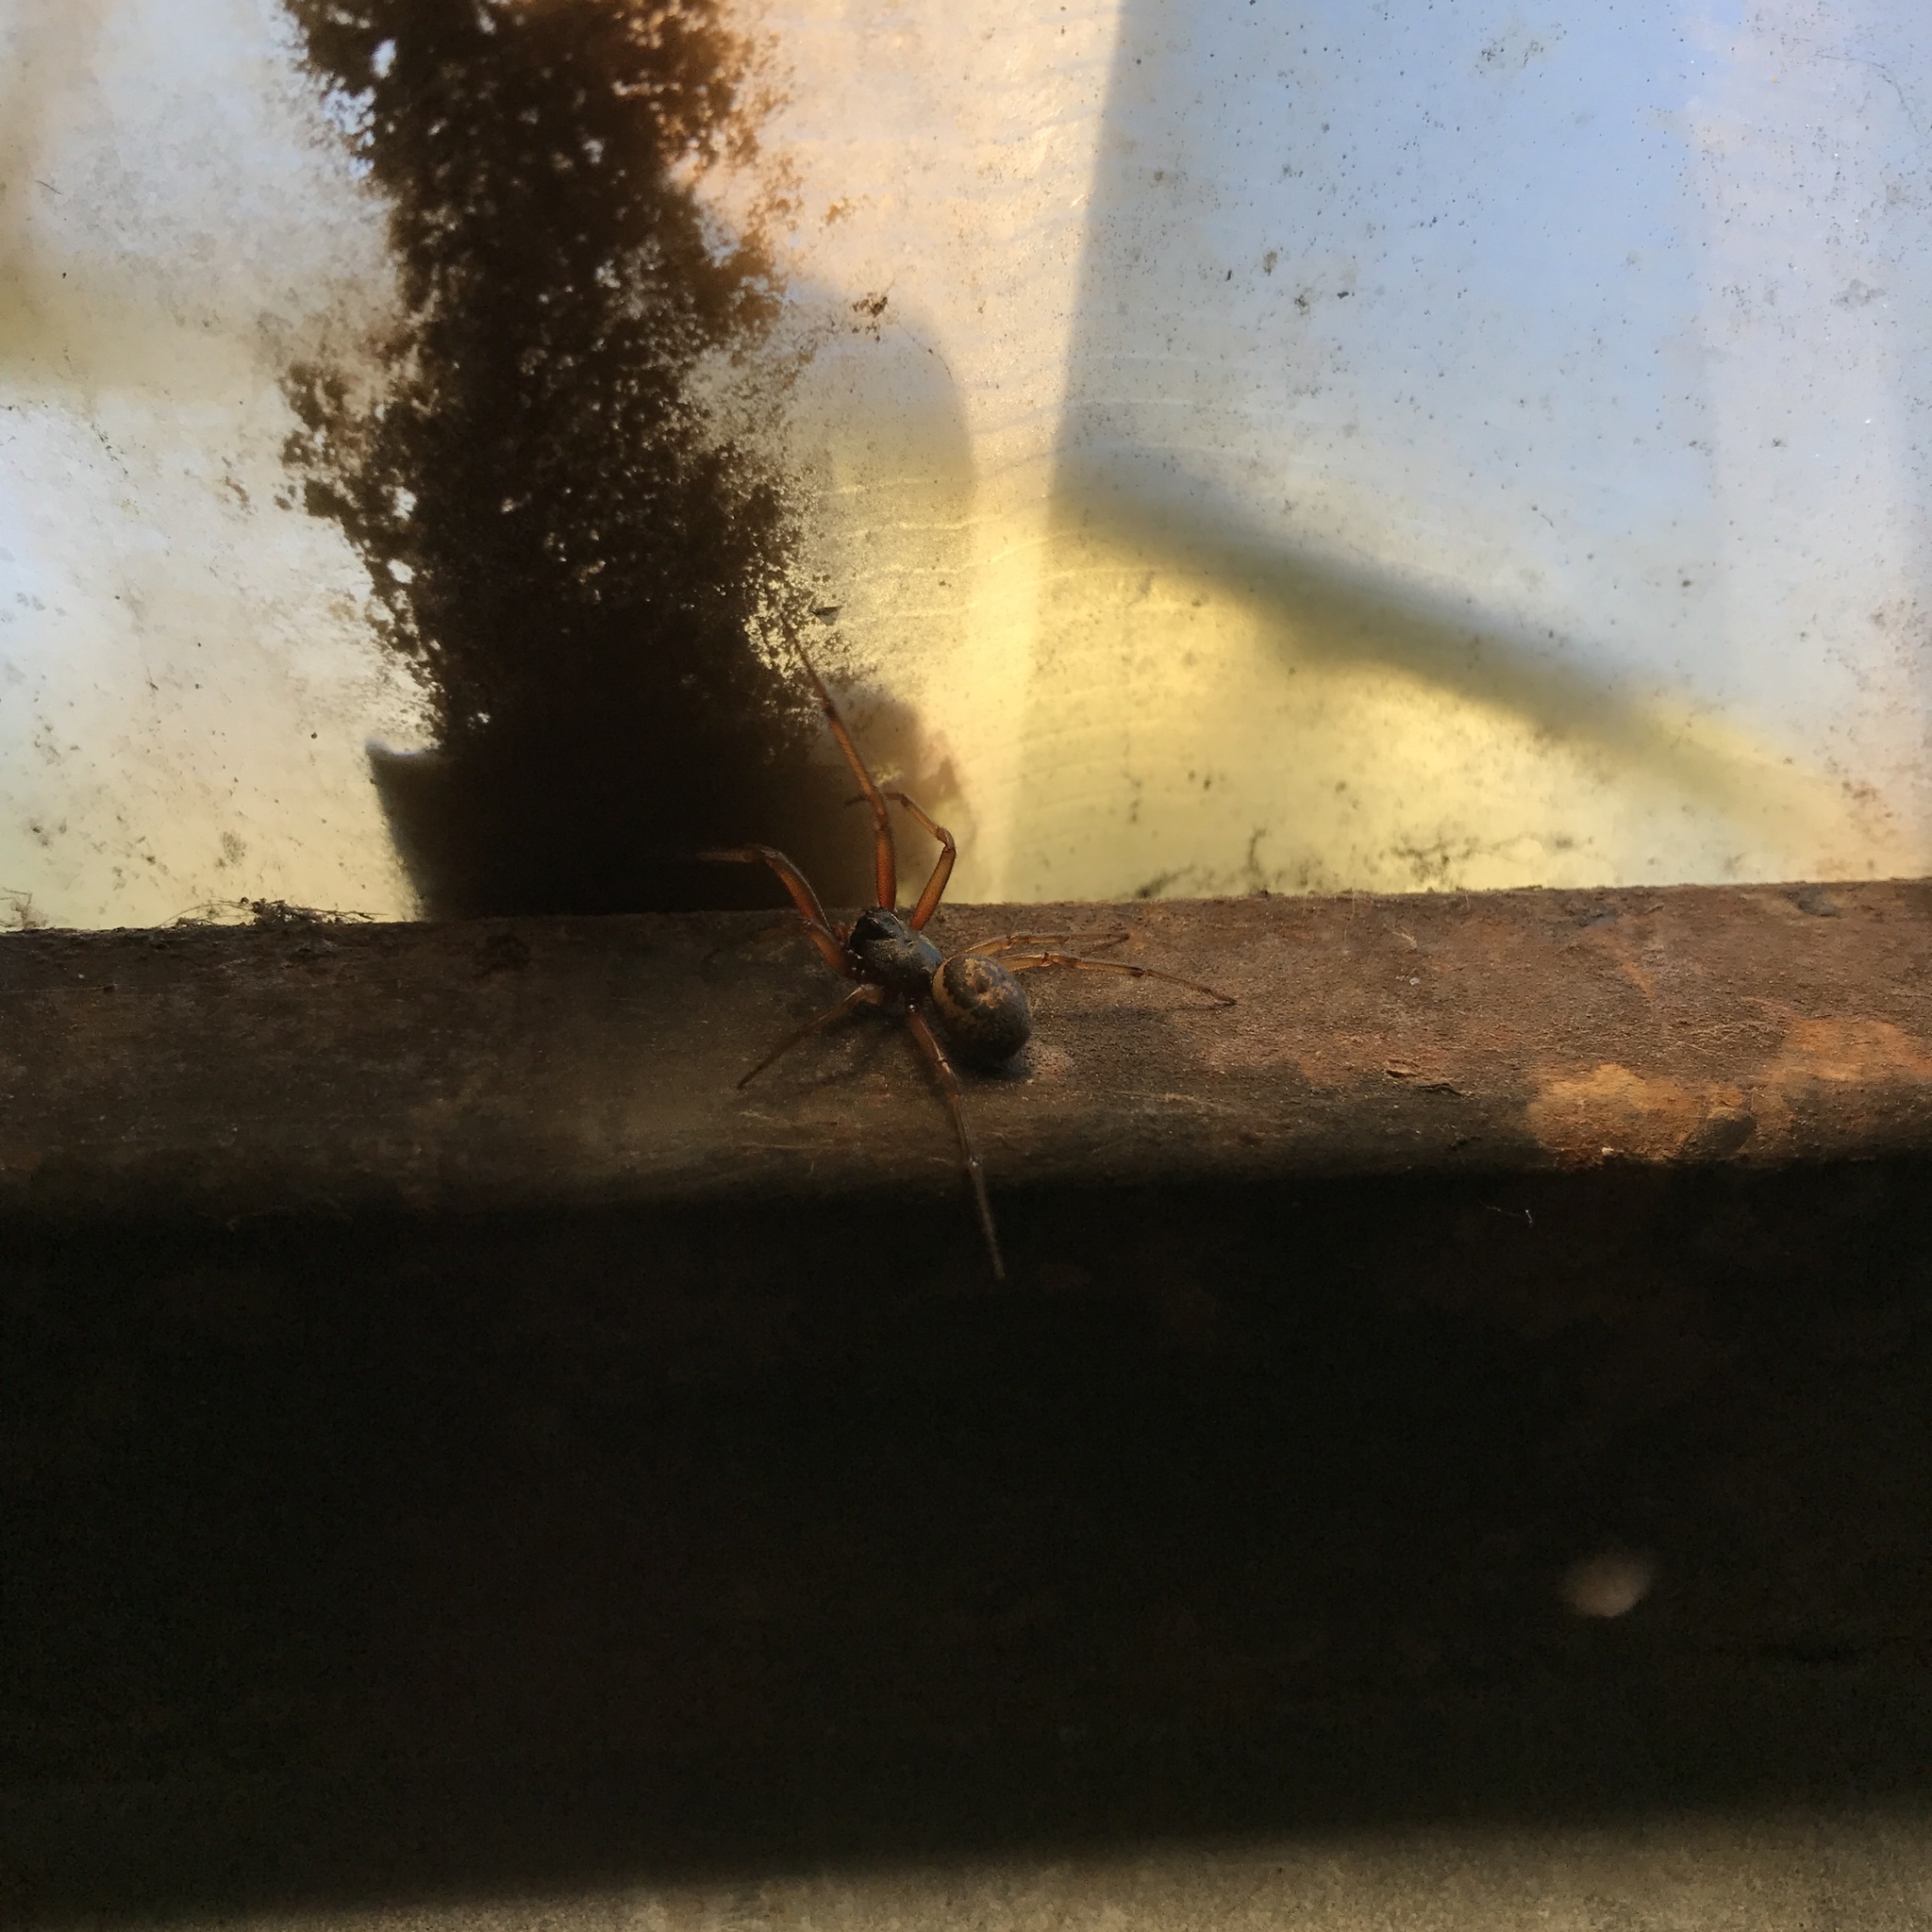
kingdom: Animalia
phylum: Arthropoda
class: Arachnida
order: Araneae
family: Theridiidae
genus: Steatoda
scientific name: Steatoda nobilis
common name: Cobweb weaver
